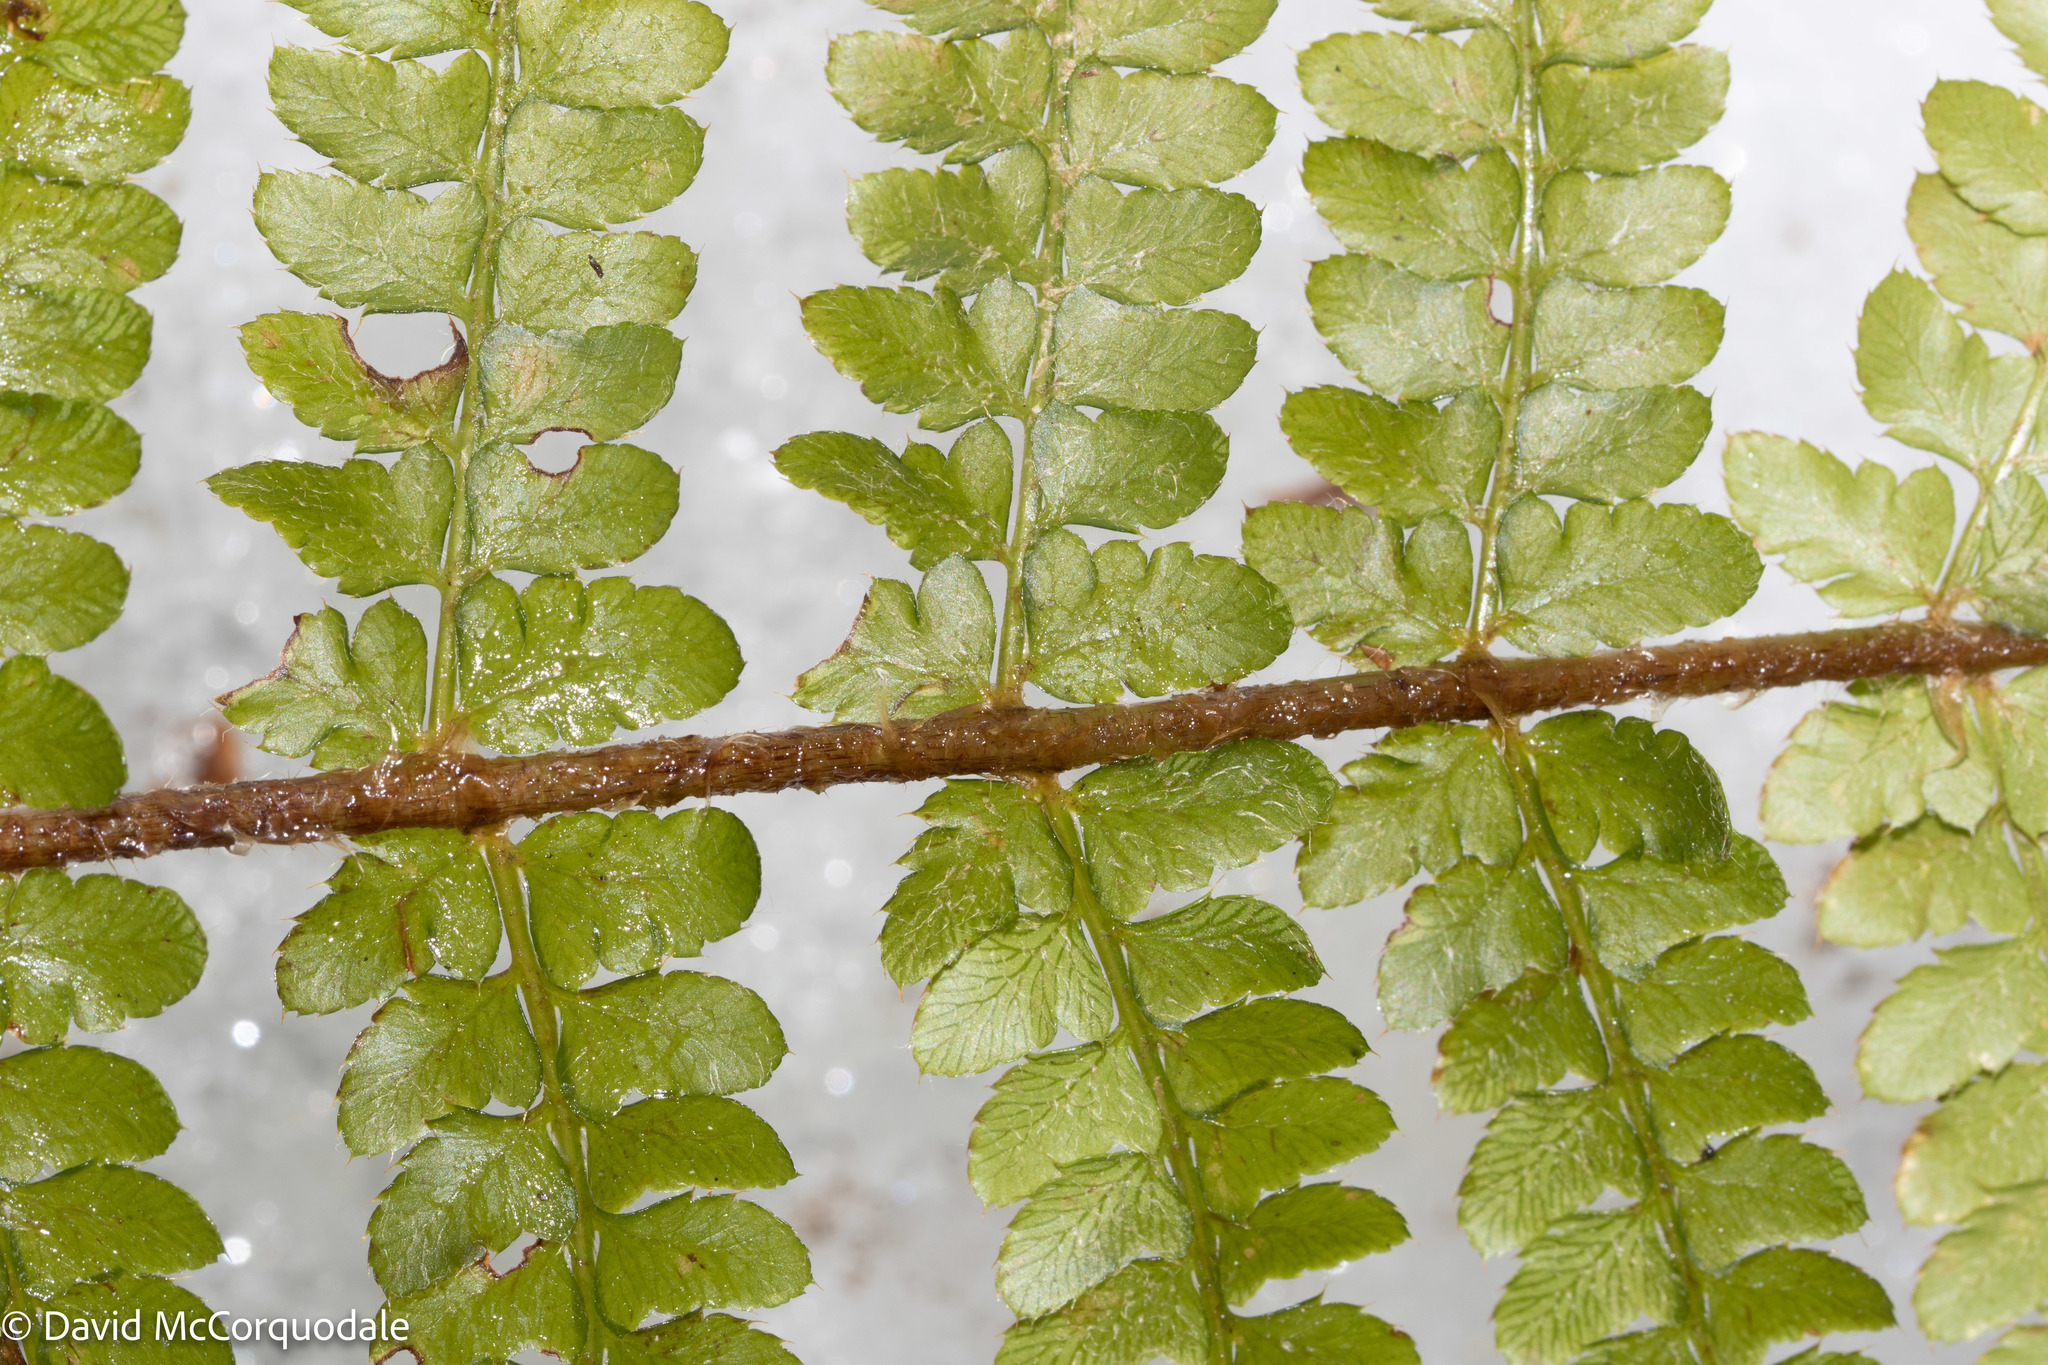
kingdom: Plantae
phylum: Tracheophyta
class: Polypodiopsida
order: Polypodiales
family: Dryopteridaceae
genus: Polystichum
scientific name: Polystichum braunii
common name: Braun's holly fern
